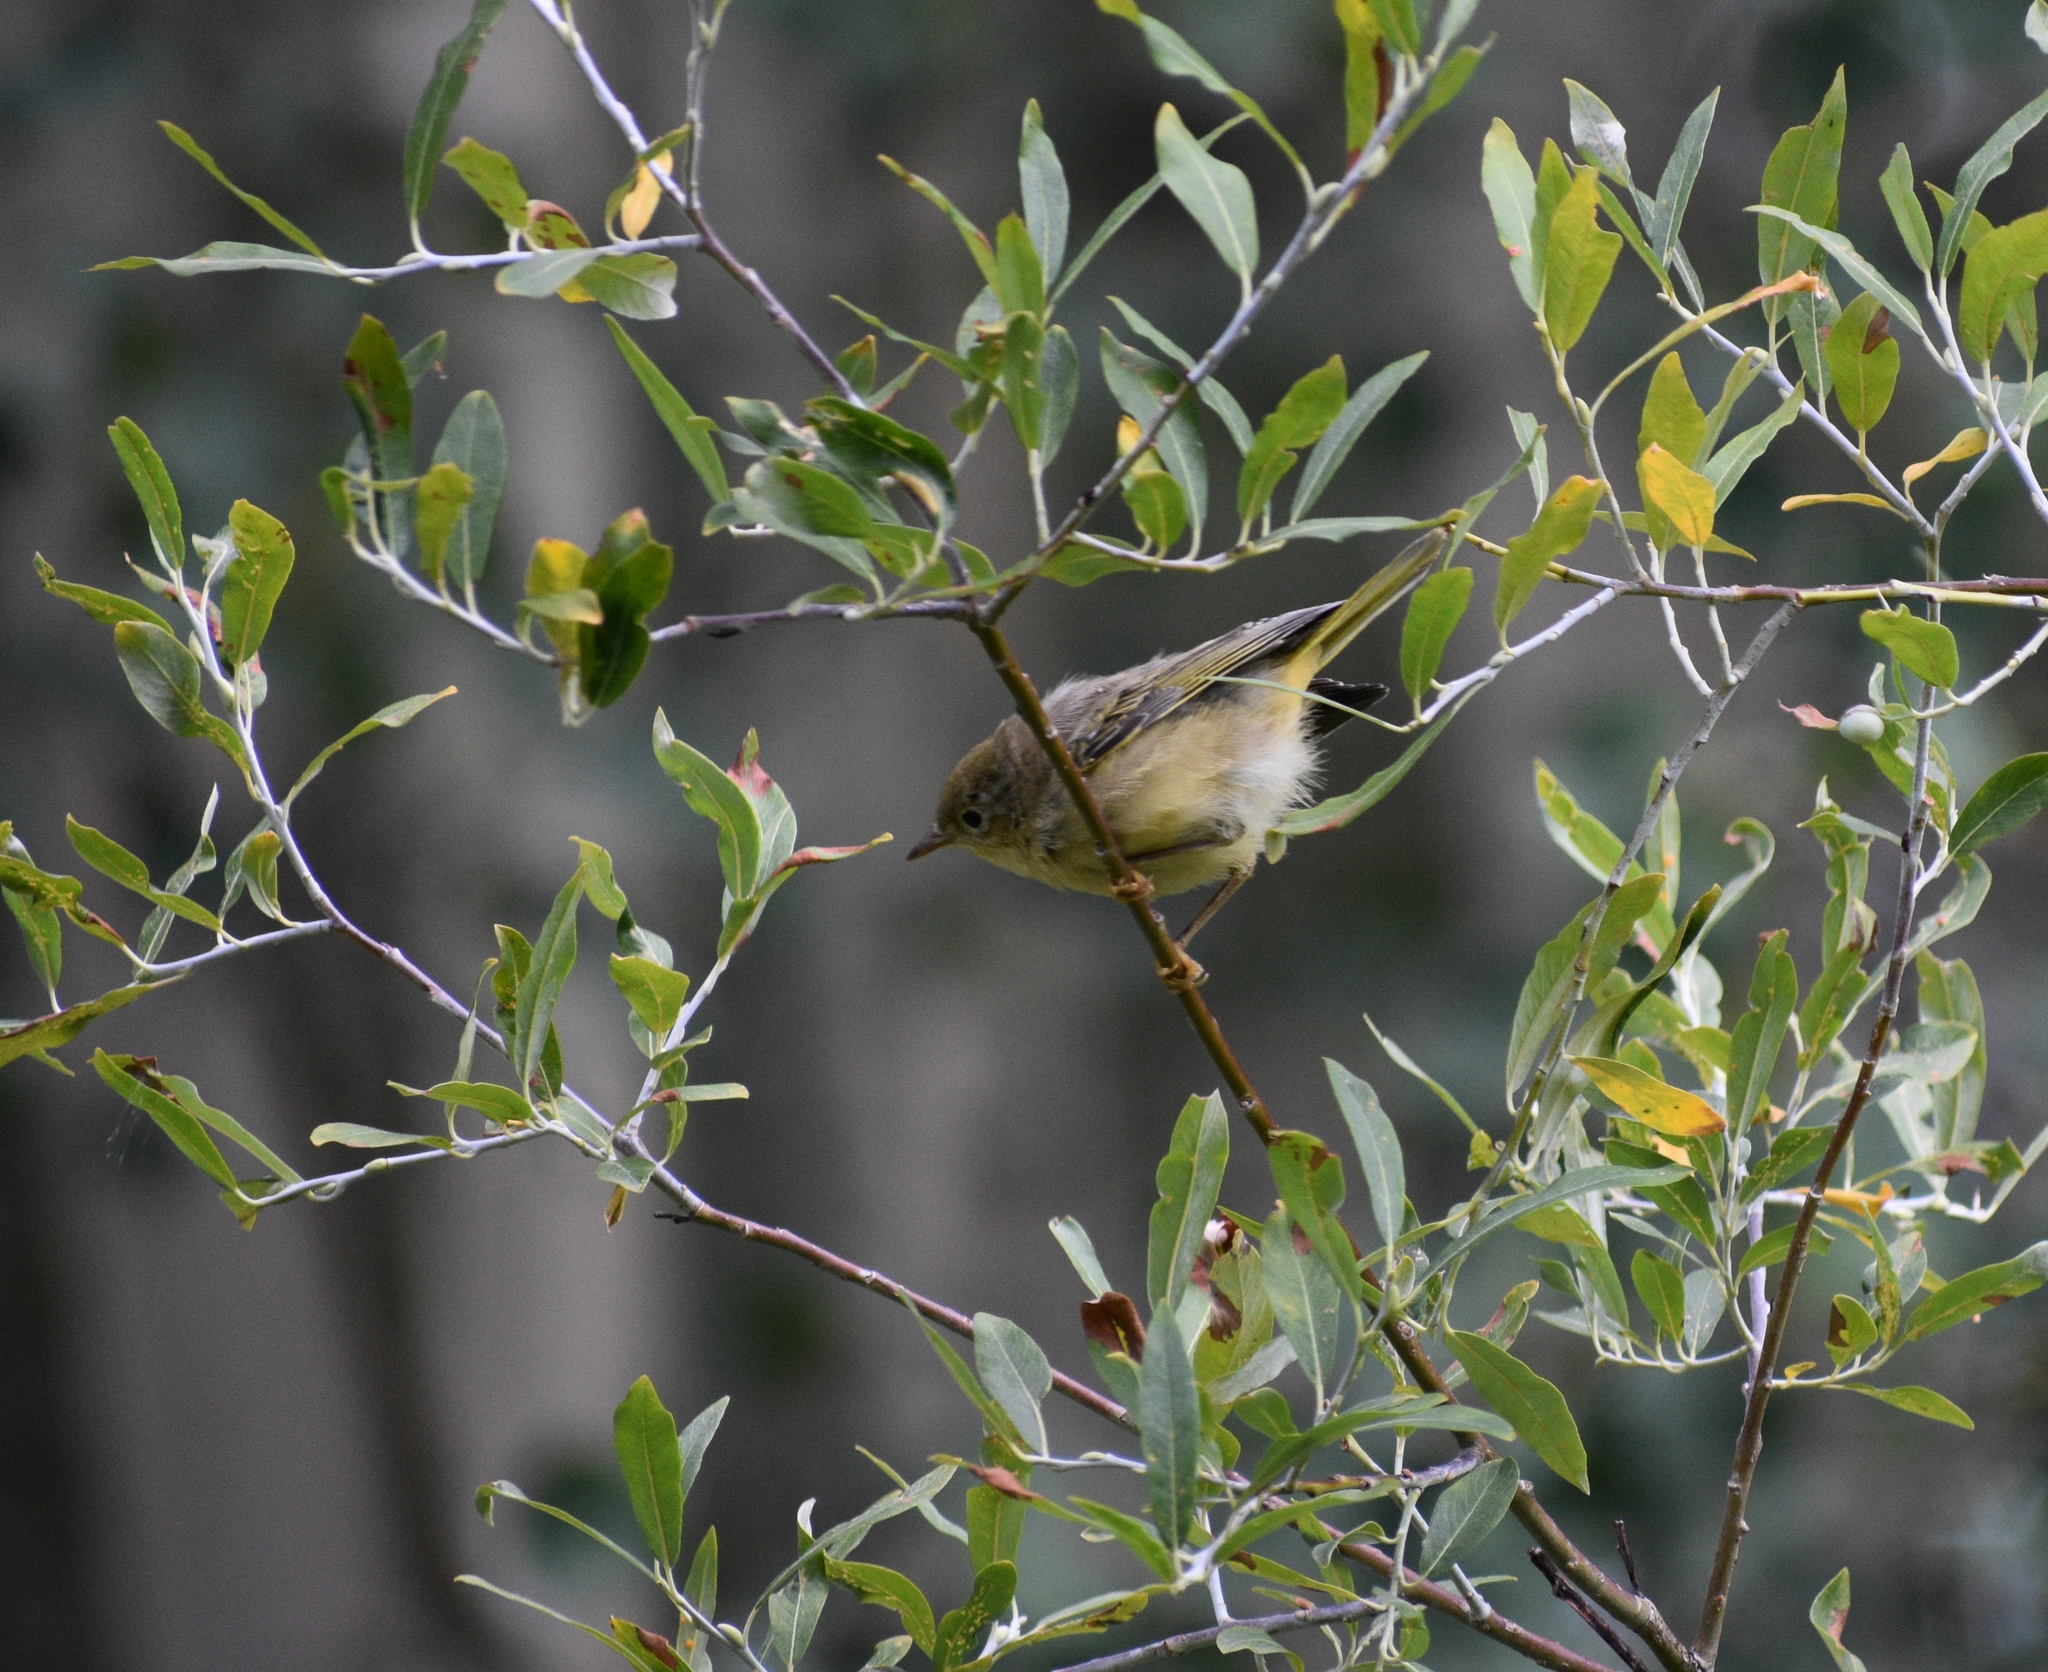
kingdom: Animalia
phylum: Chordata
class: Aves
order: Passeriformes
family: Parulidae
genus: Setophaga
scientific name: Setophaga petechia
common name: Yellow warbler
